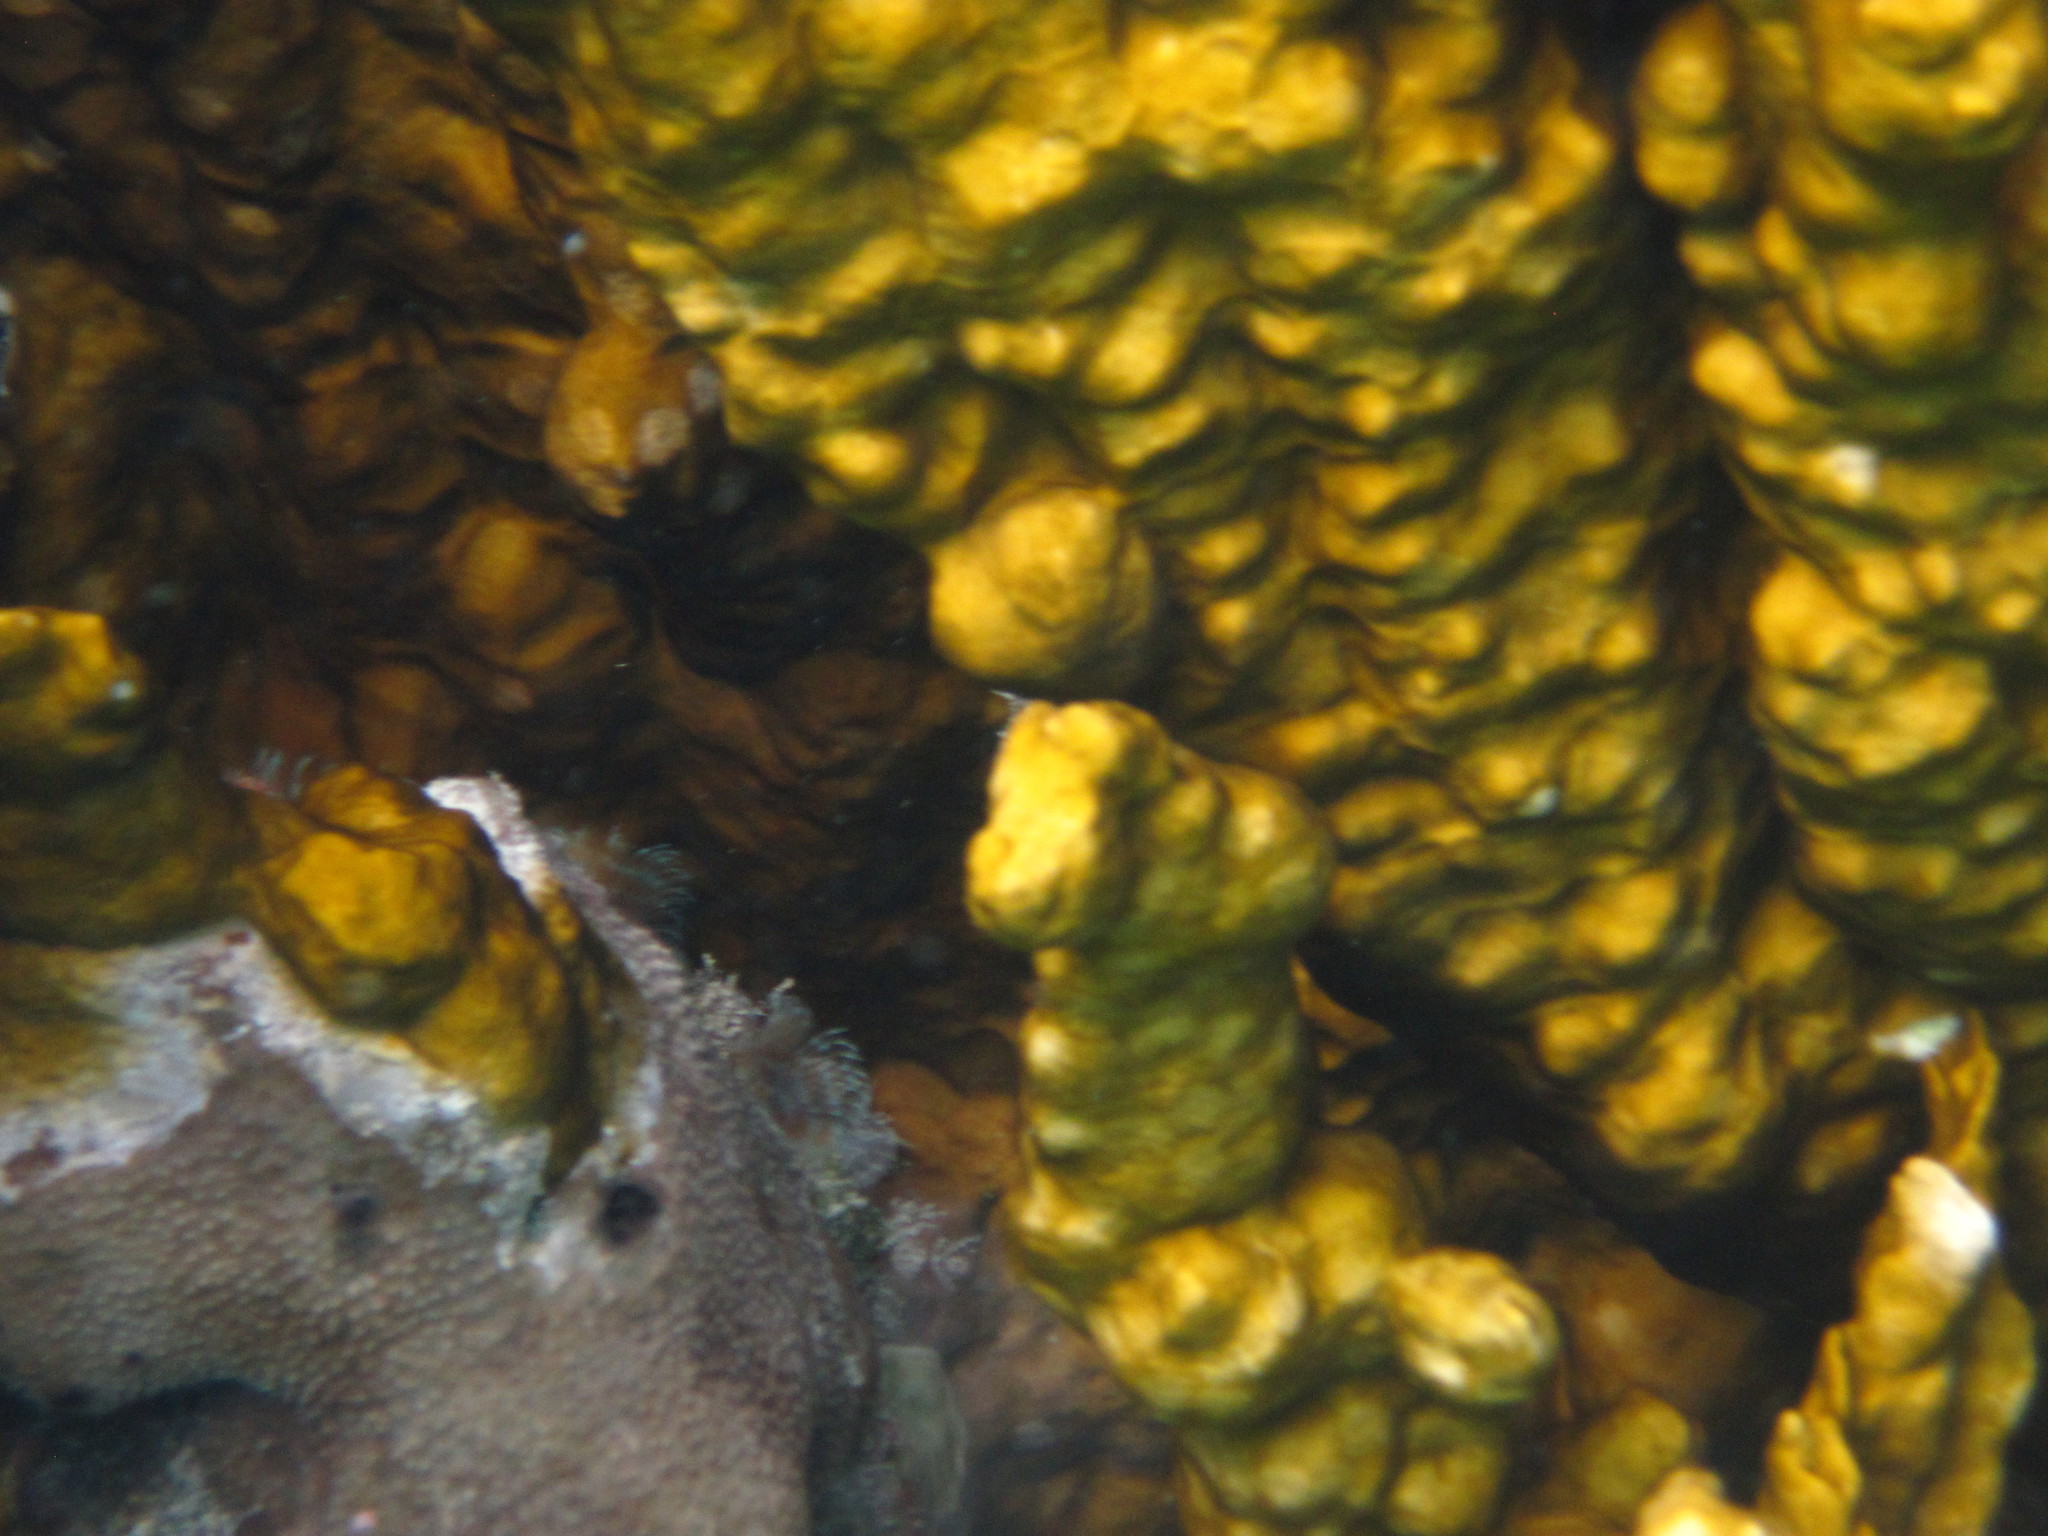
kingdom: Animalia
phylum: Cnidaria
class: Hydrozoa
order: Anthoathecata
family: Milleporidae
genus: Millepora
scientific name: Millepora complanata
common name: Bladed fire coral
